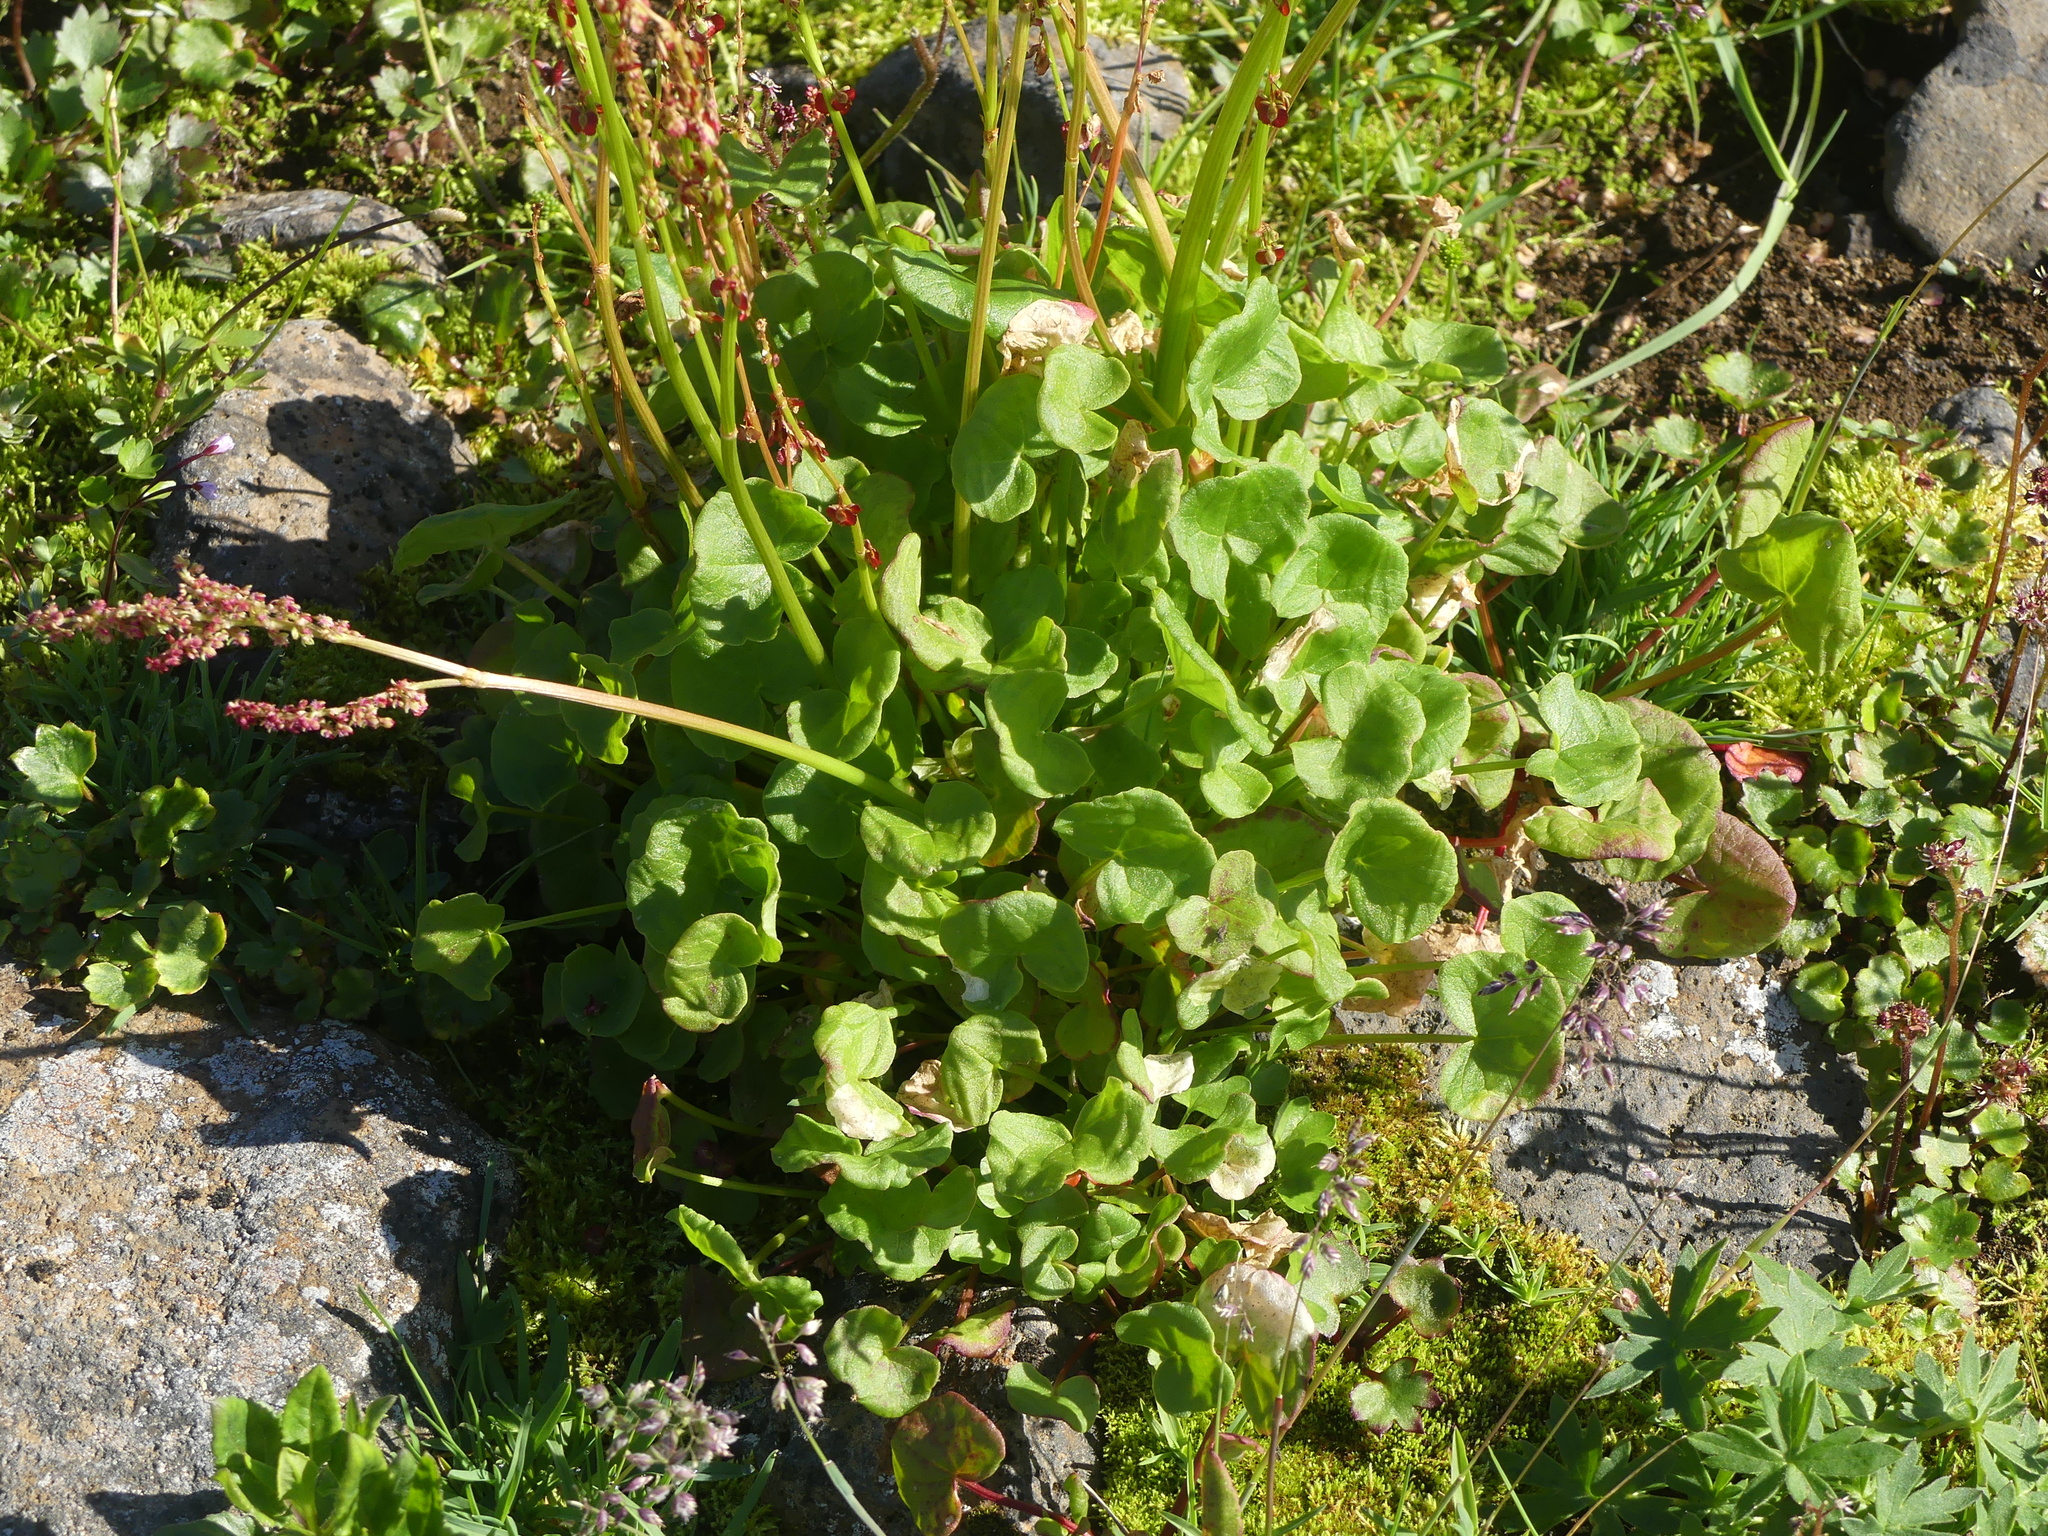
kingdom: Plantae
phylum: Tracheophyta
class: Magnoliopsida
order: Caryophyllales
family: Polygonaceae
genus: Oxyria
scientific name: Oxyria digyna
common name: Alpine mountain-sorrel
